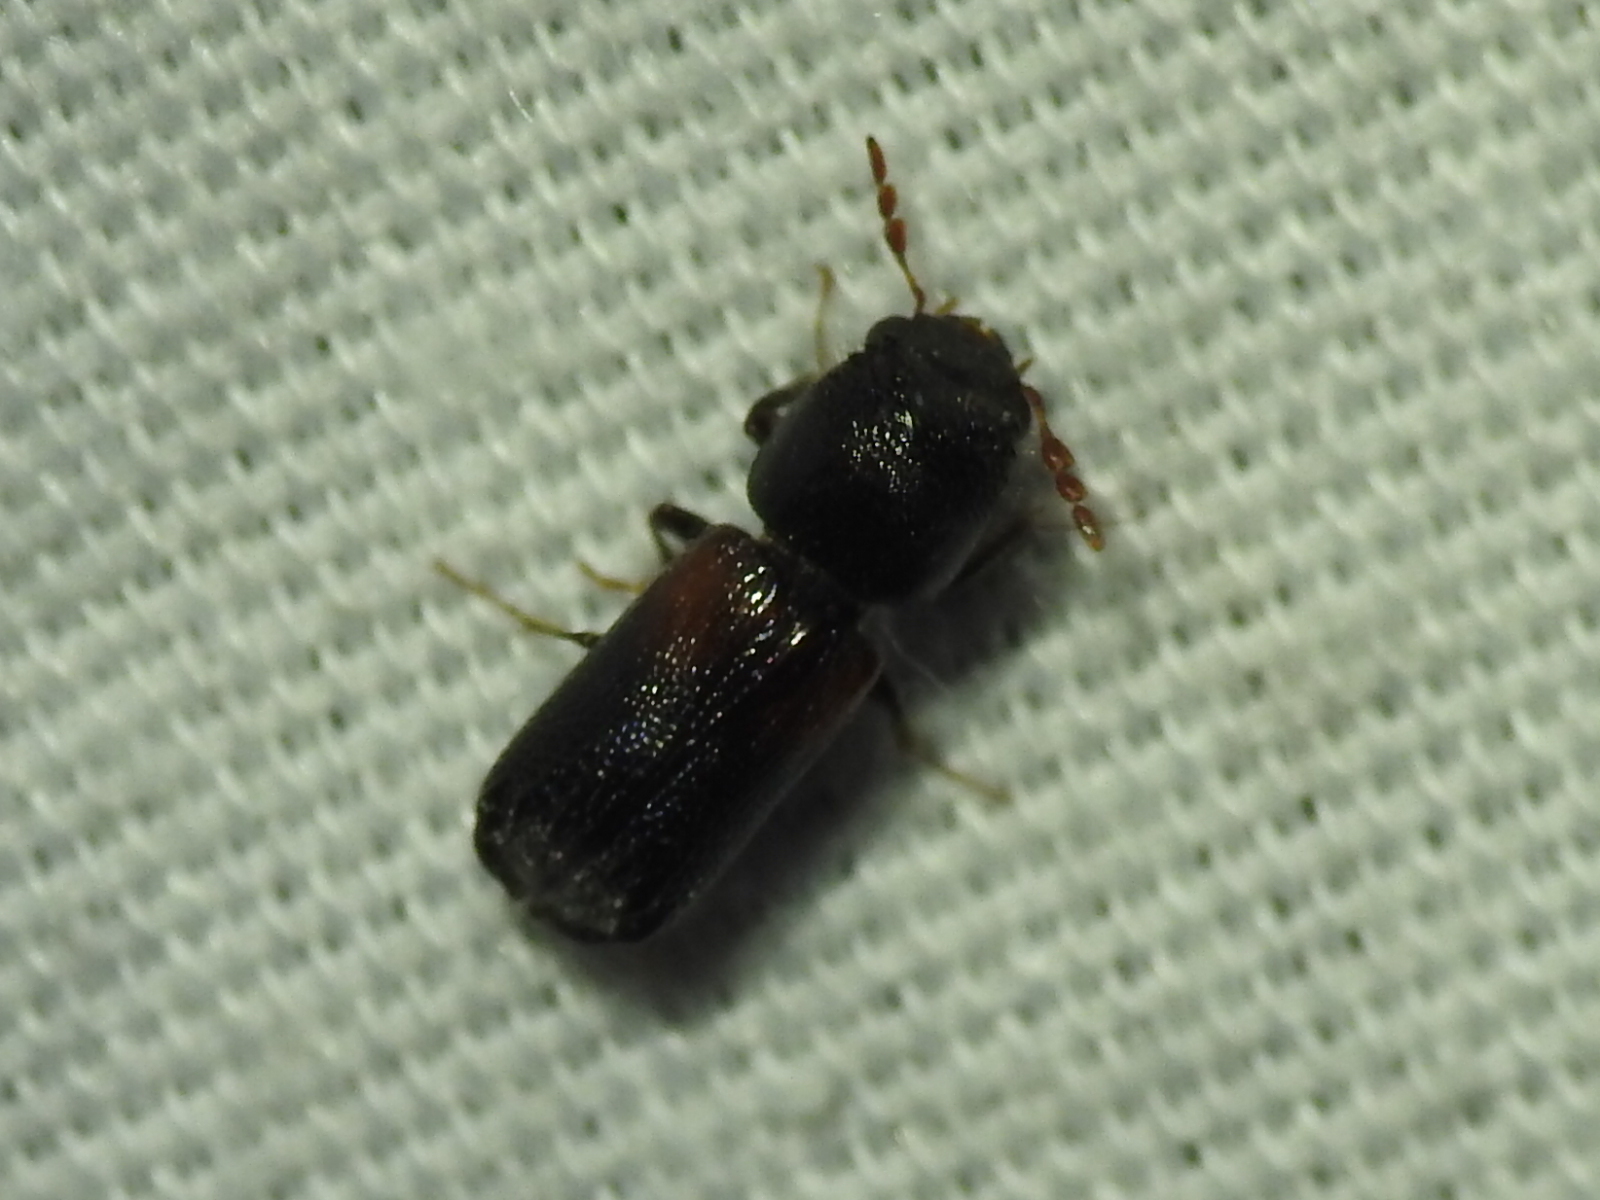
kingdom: Animalia
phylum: Arthropoda
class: Insecta
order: Coleoptera
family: Bostrichidae
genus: Xylobiops
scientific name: Xylobiops basilaris
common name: Red-shouldered bostrichid
